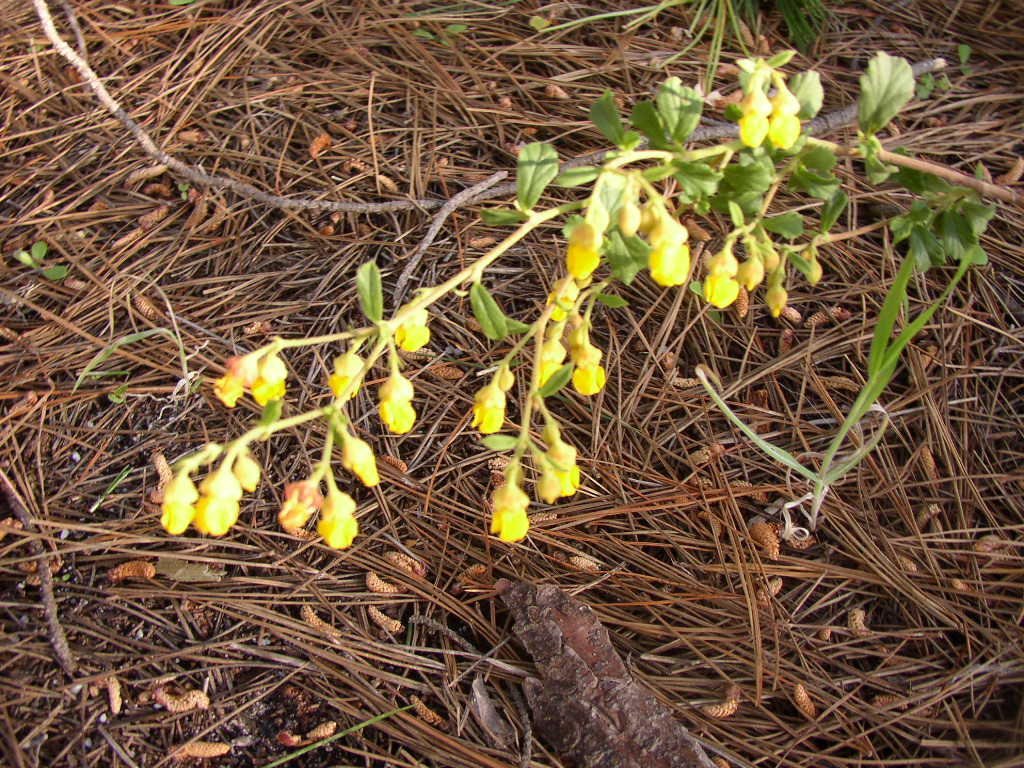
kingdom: Plantae
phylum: Tracheophyta
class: Magnoliopsida
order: Malvales
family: Malvaceae
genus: Hermannia
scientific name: Hermannia multiflora
